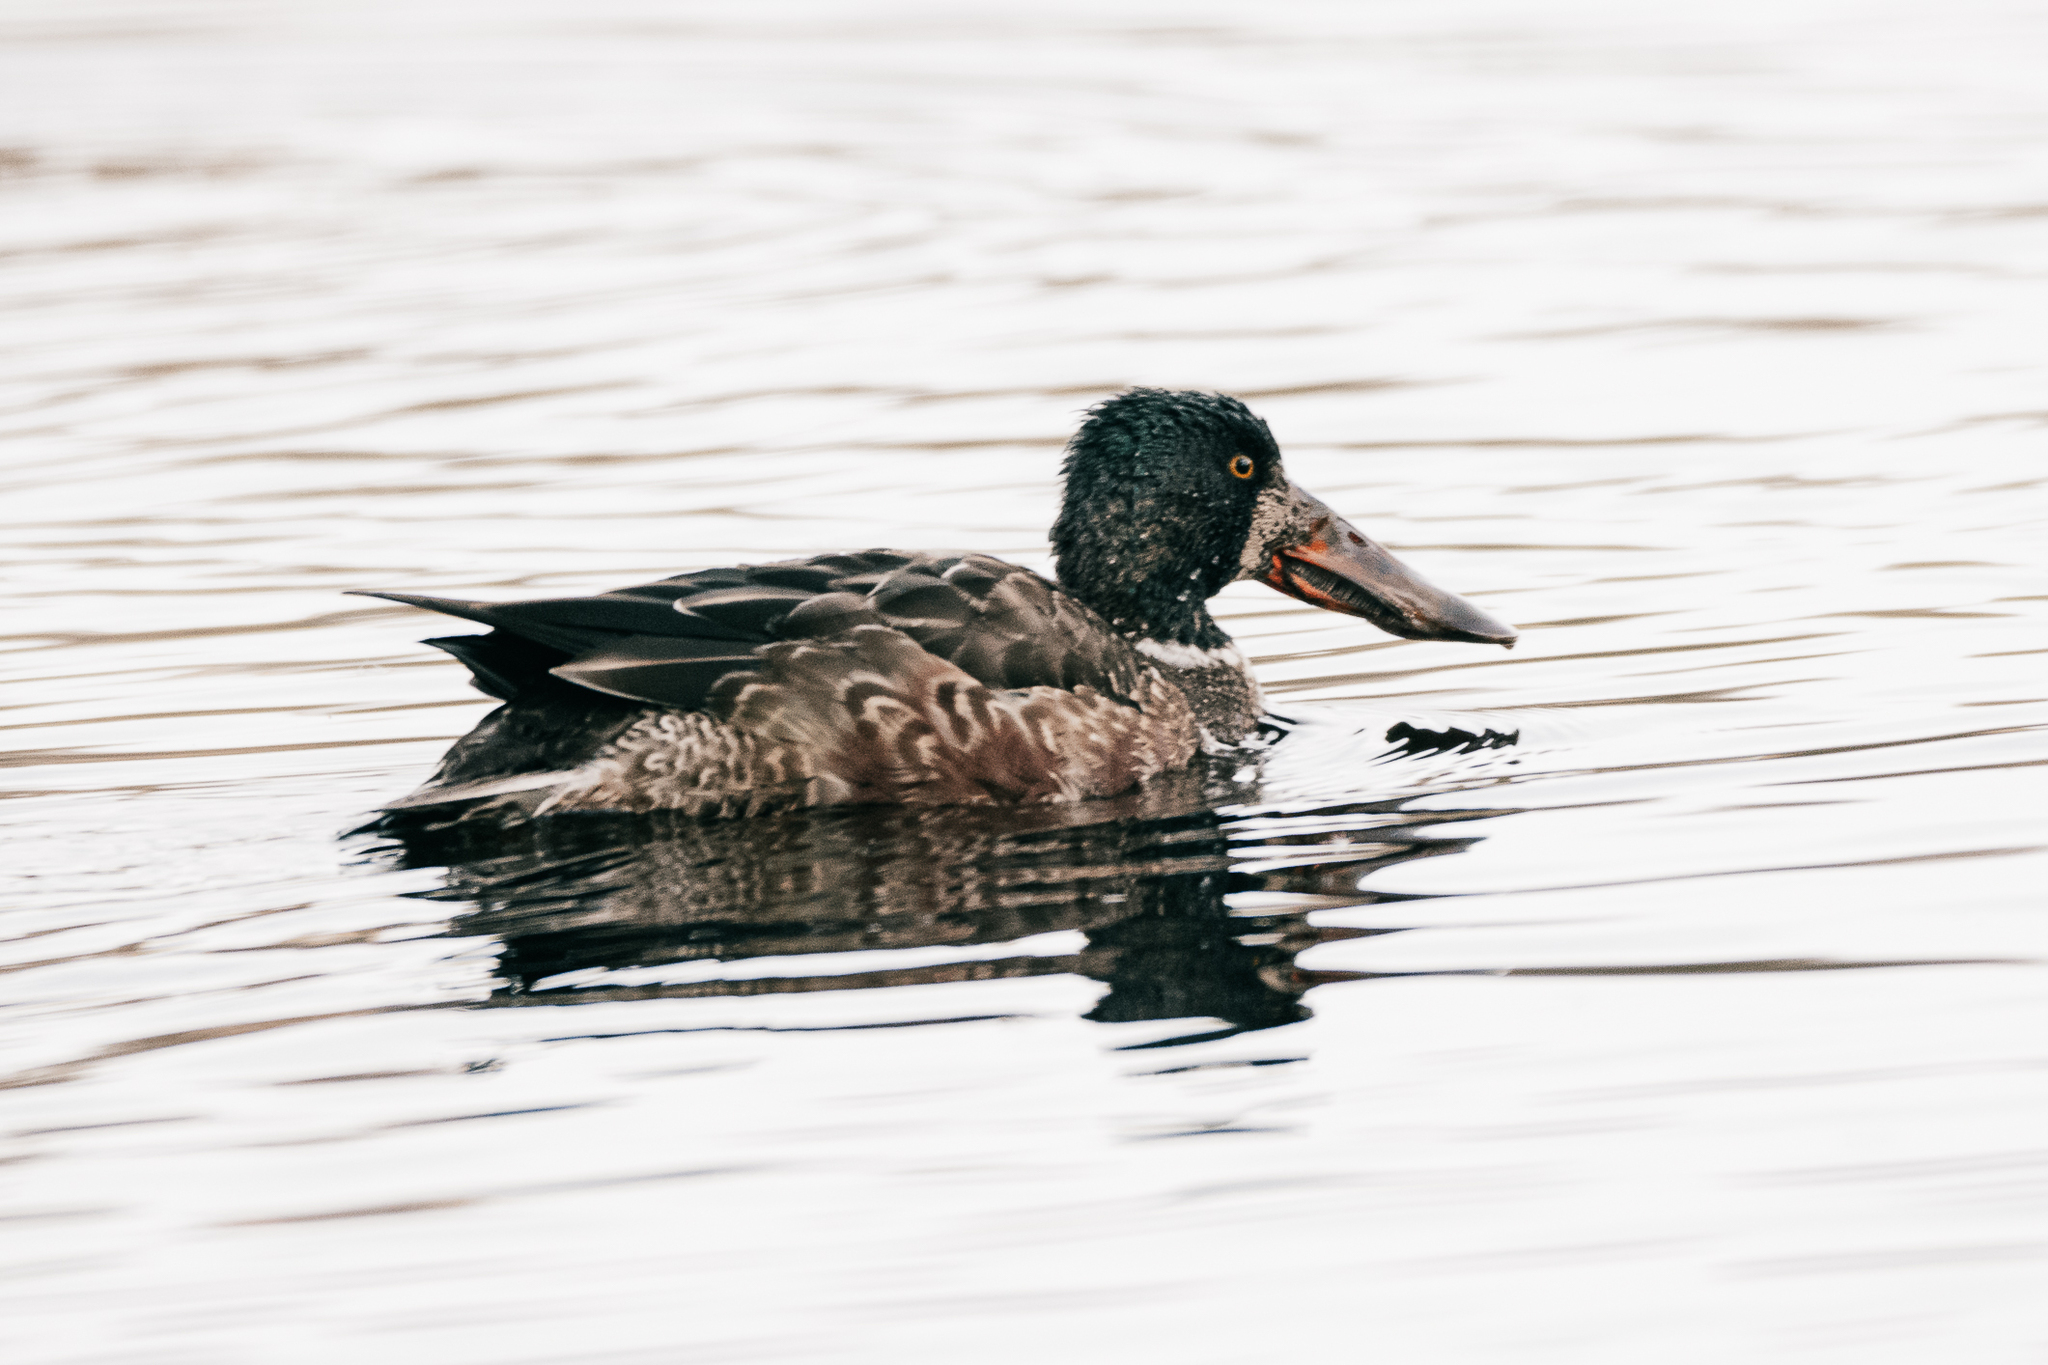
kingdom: Animalia
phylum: Chordata
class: Aves
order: Anseriformes
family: Anatidae
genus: Spatula
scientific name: Spatula clypeata
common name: Northern shoveler
